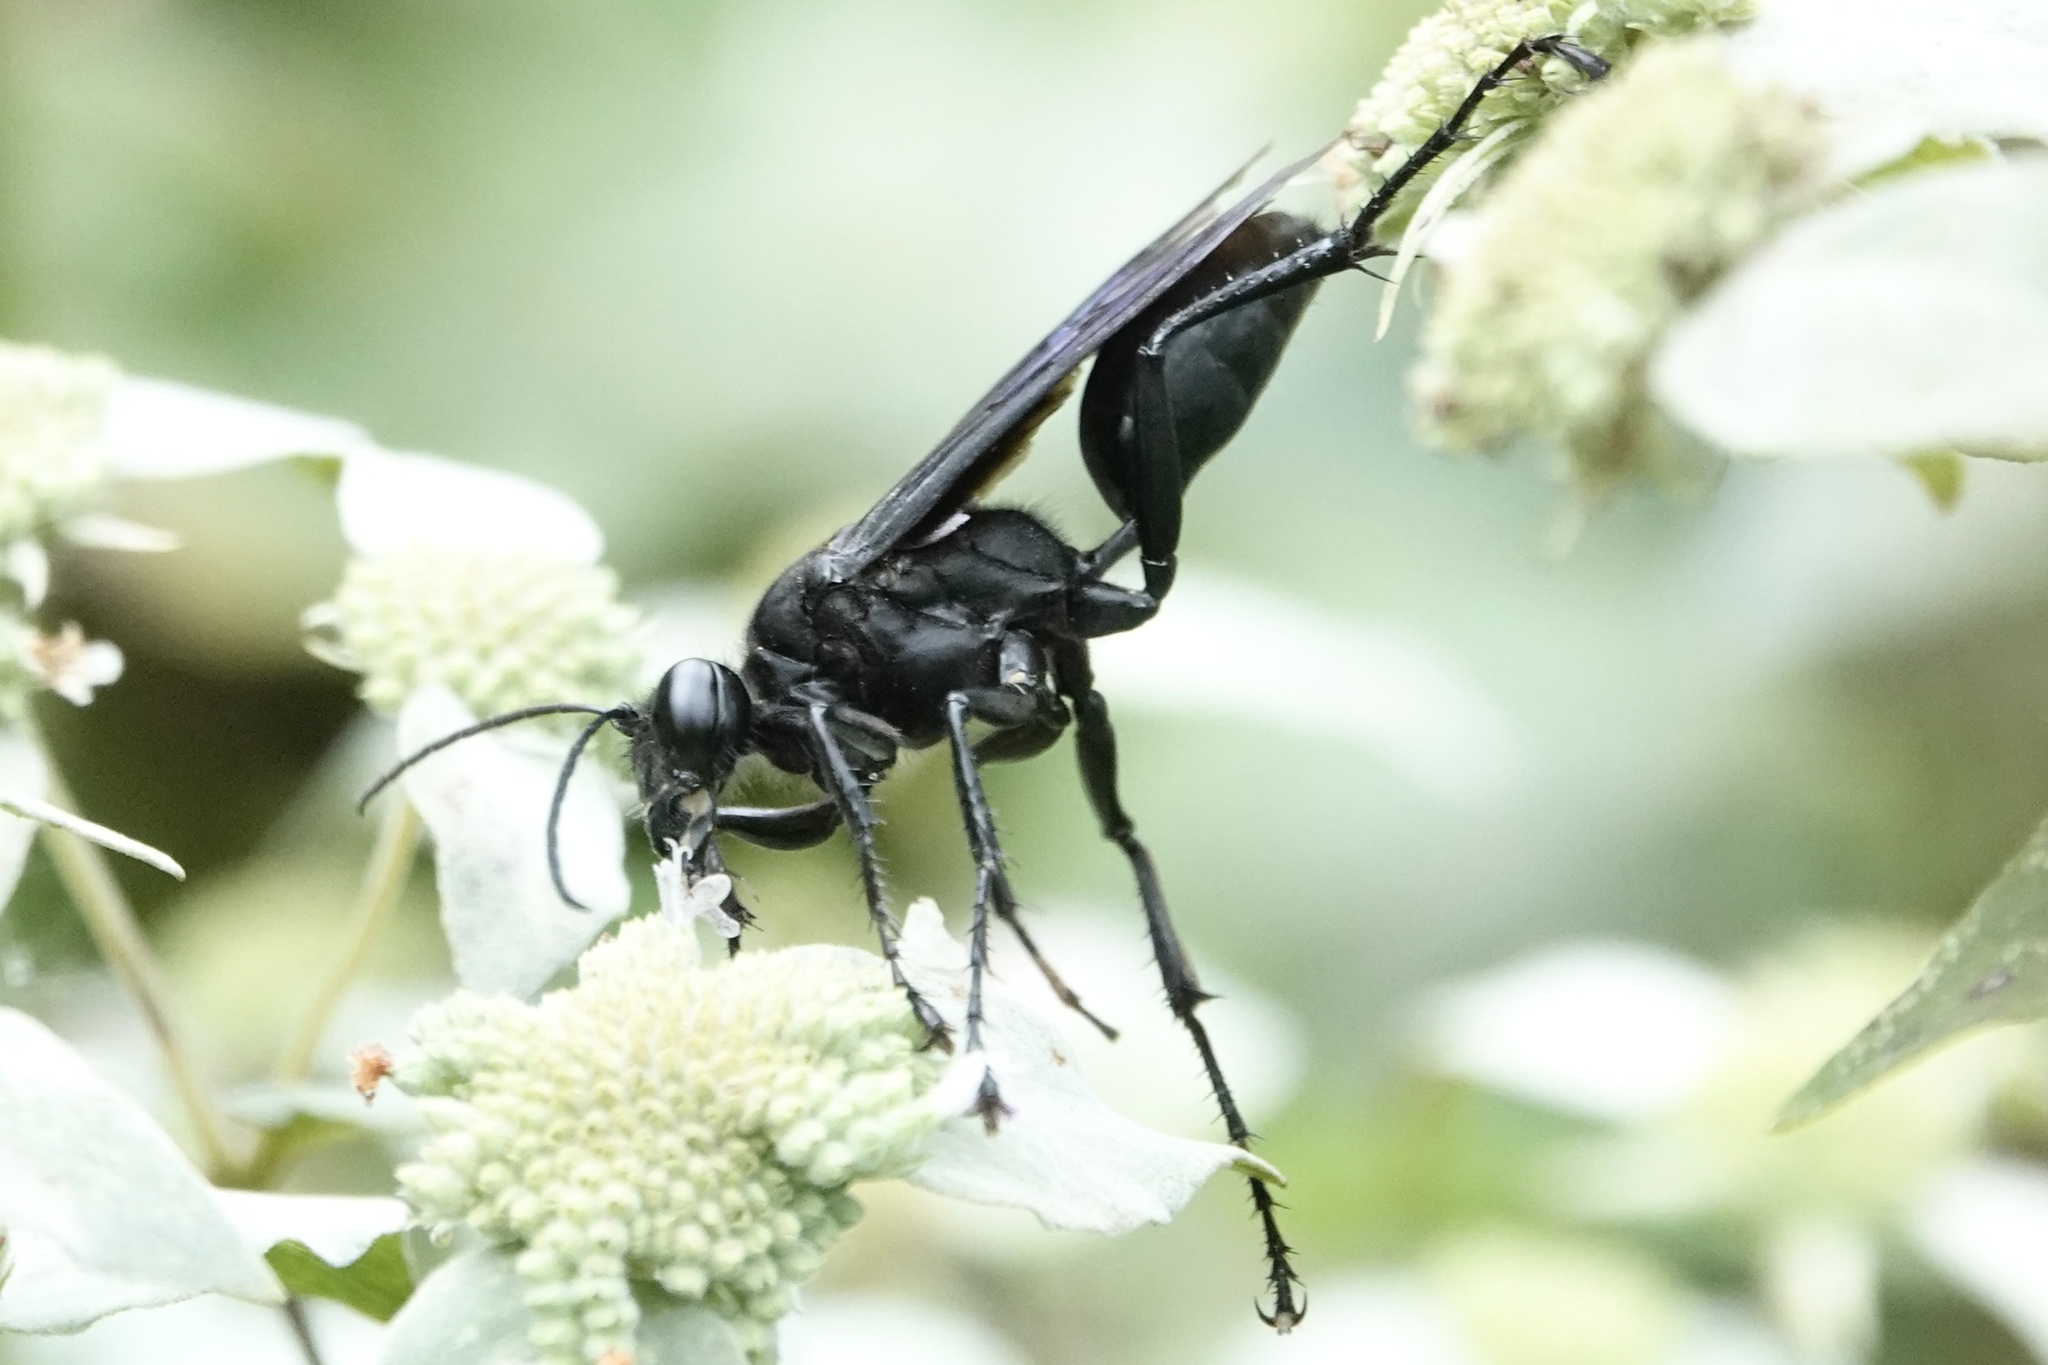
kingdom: Animalia
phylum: Arthropoda
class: Insecta
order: Hymenoptera
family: Sphecidae
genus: Sphex
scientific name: Sphex pensylvanicus
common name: Great black digger wasp
